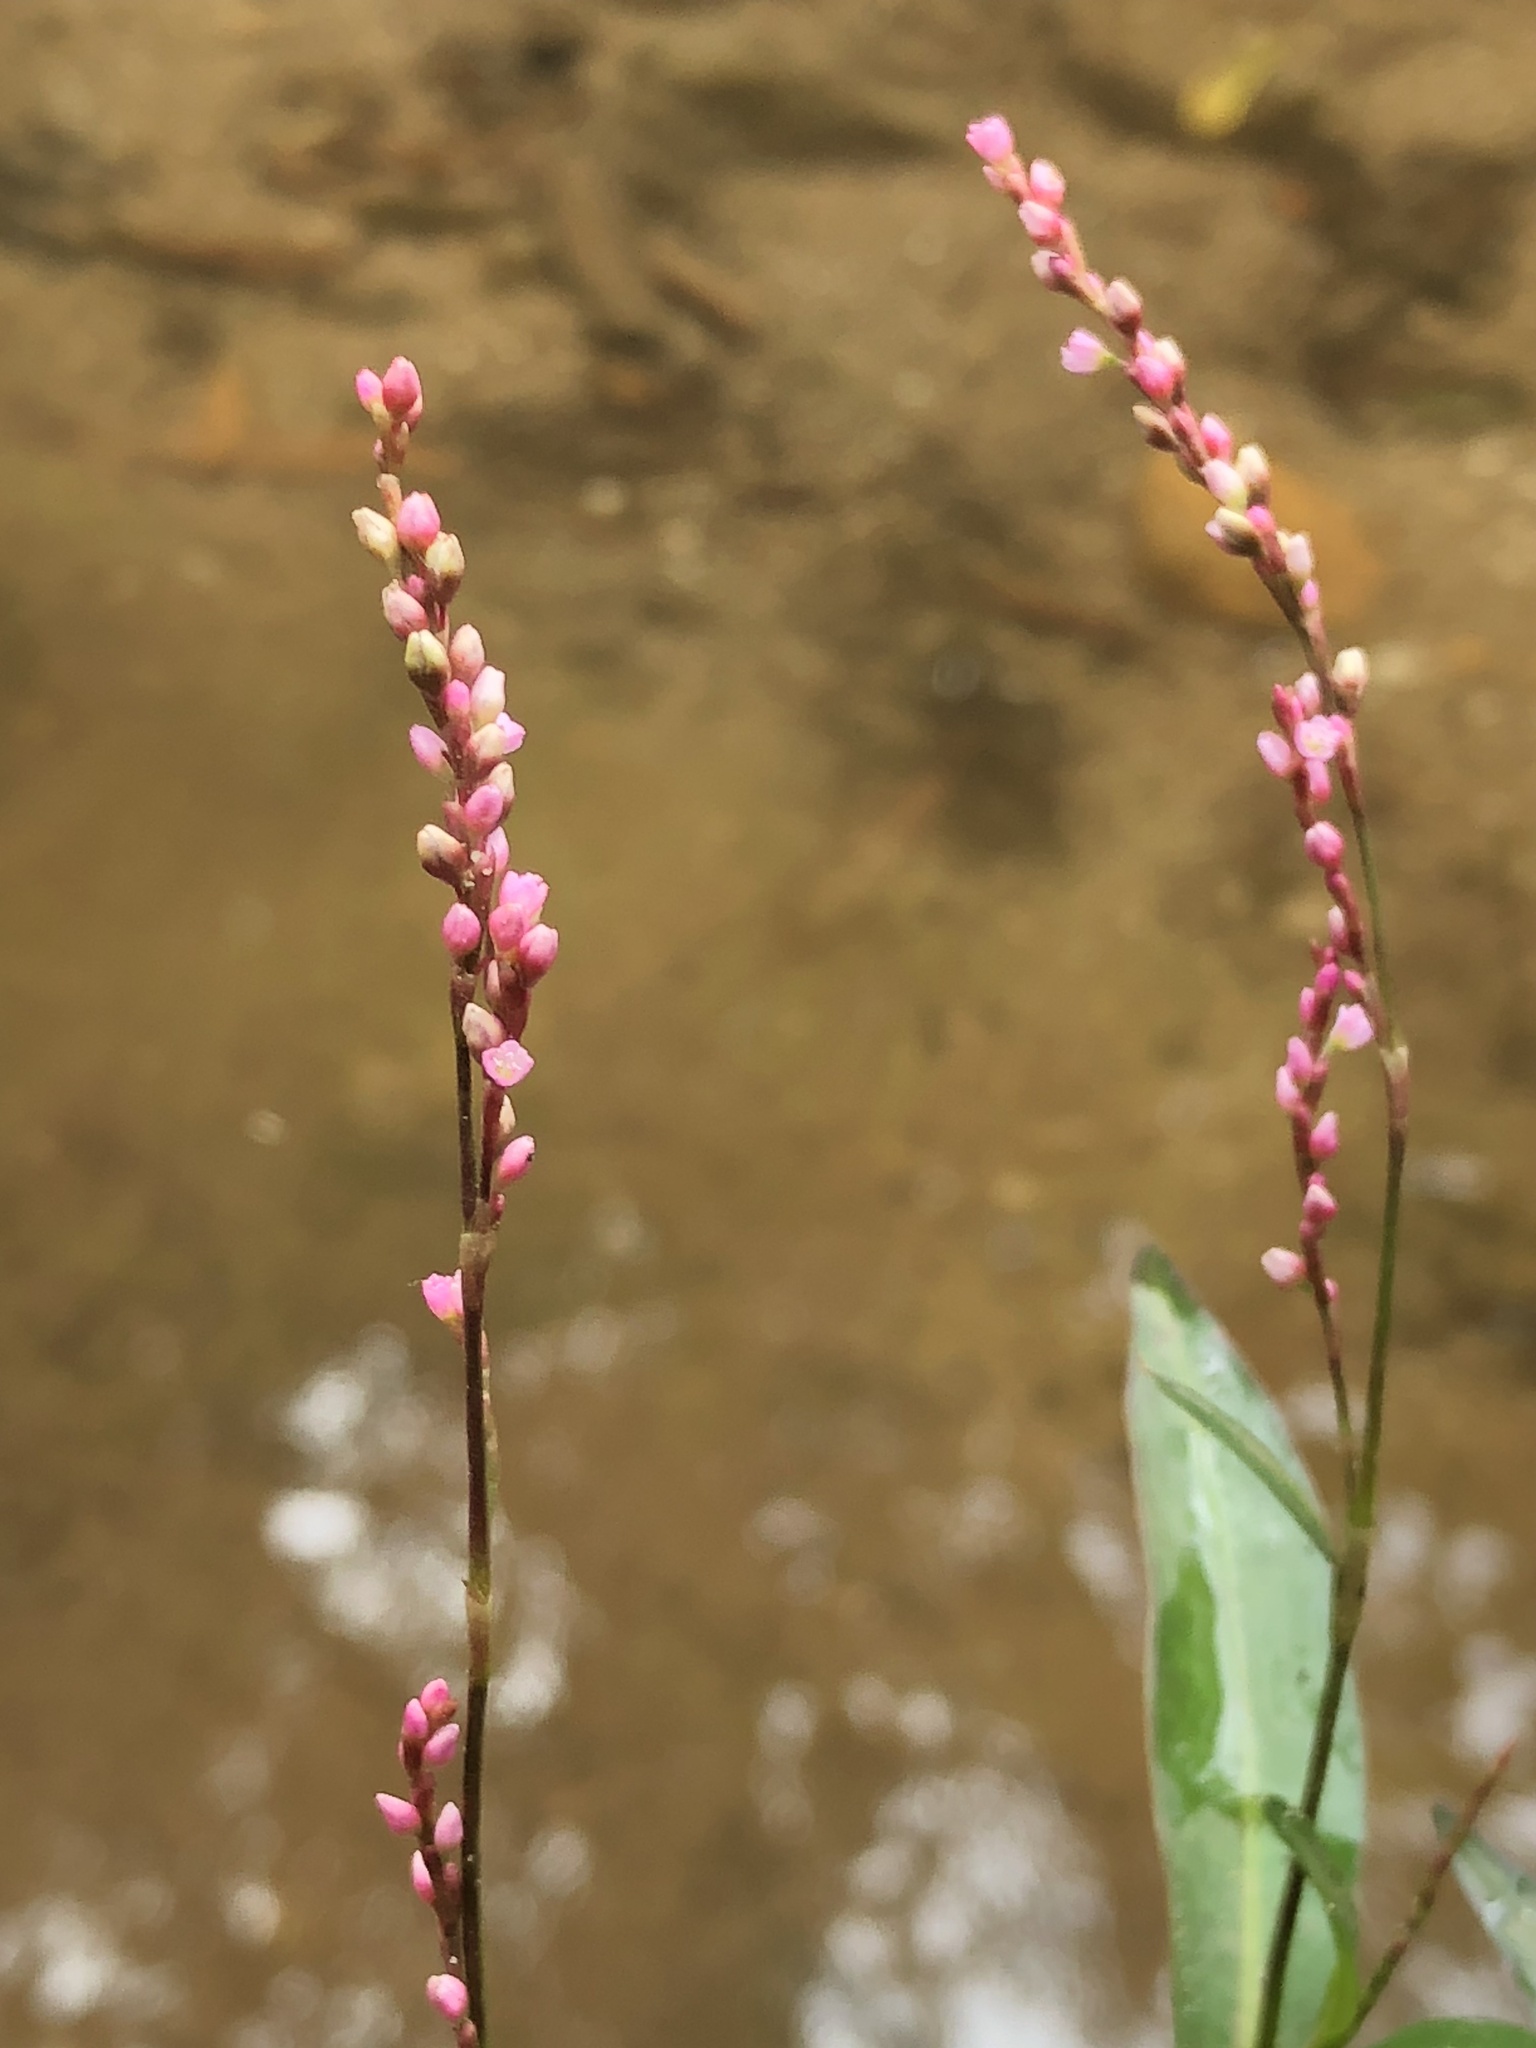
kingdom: Plantae
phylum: Tracheophyta
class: Magnoliopsida
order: Caryophyllales
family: Polygonaceae
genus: Persicaria
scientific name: Persicaria decipiens
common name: Willow-weed
